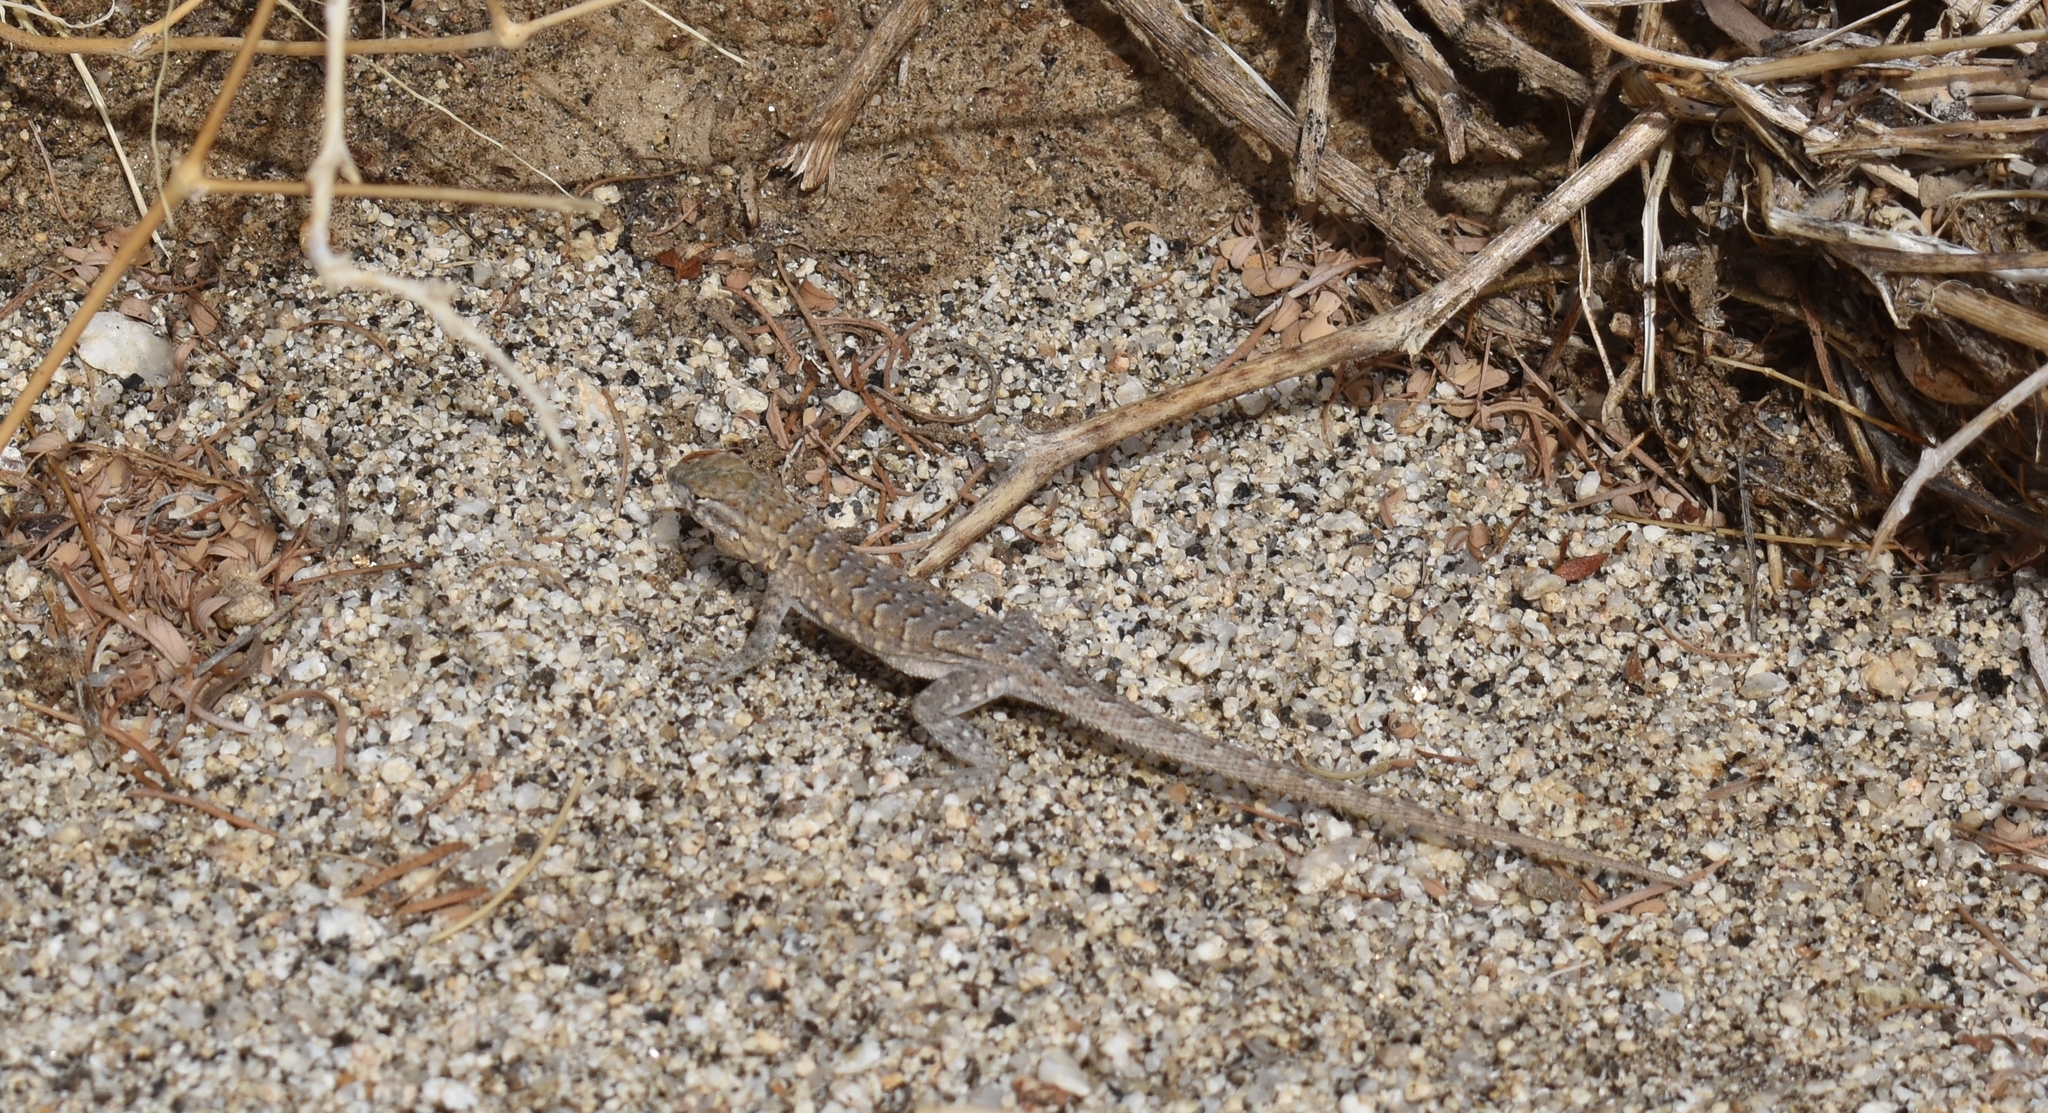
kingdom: Animalia
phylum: Chordata
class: Squamata
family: Phrynosomatidae
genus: Uta
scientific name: Uta stansburiana
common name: Side-blotched lizard
